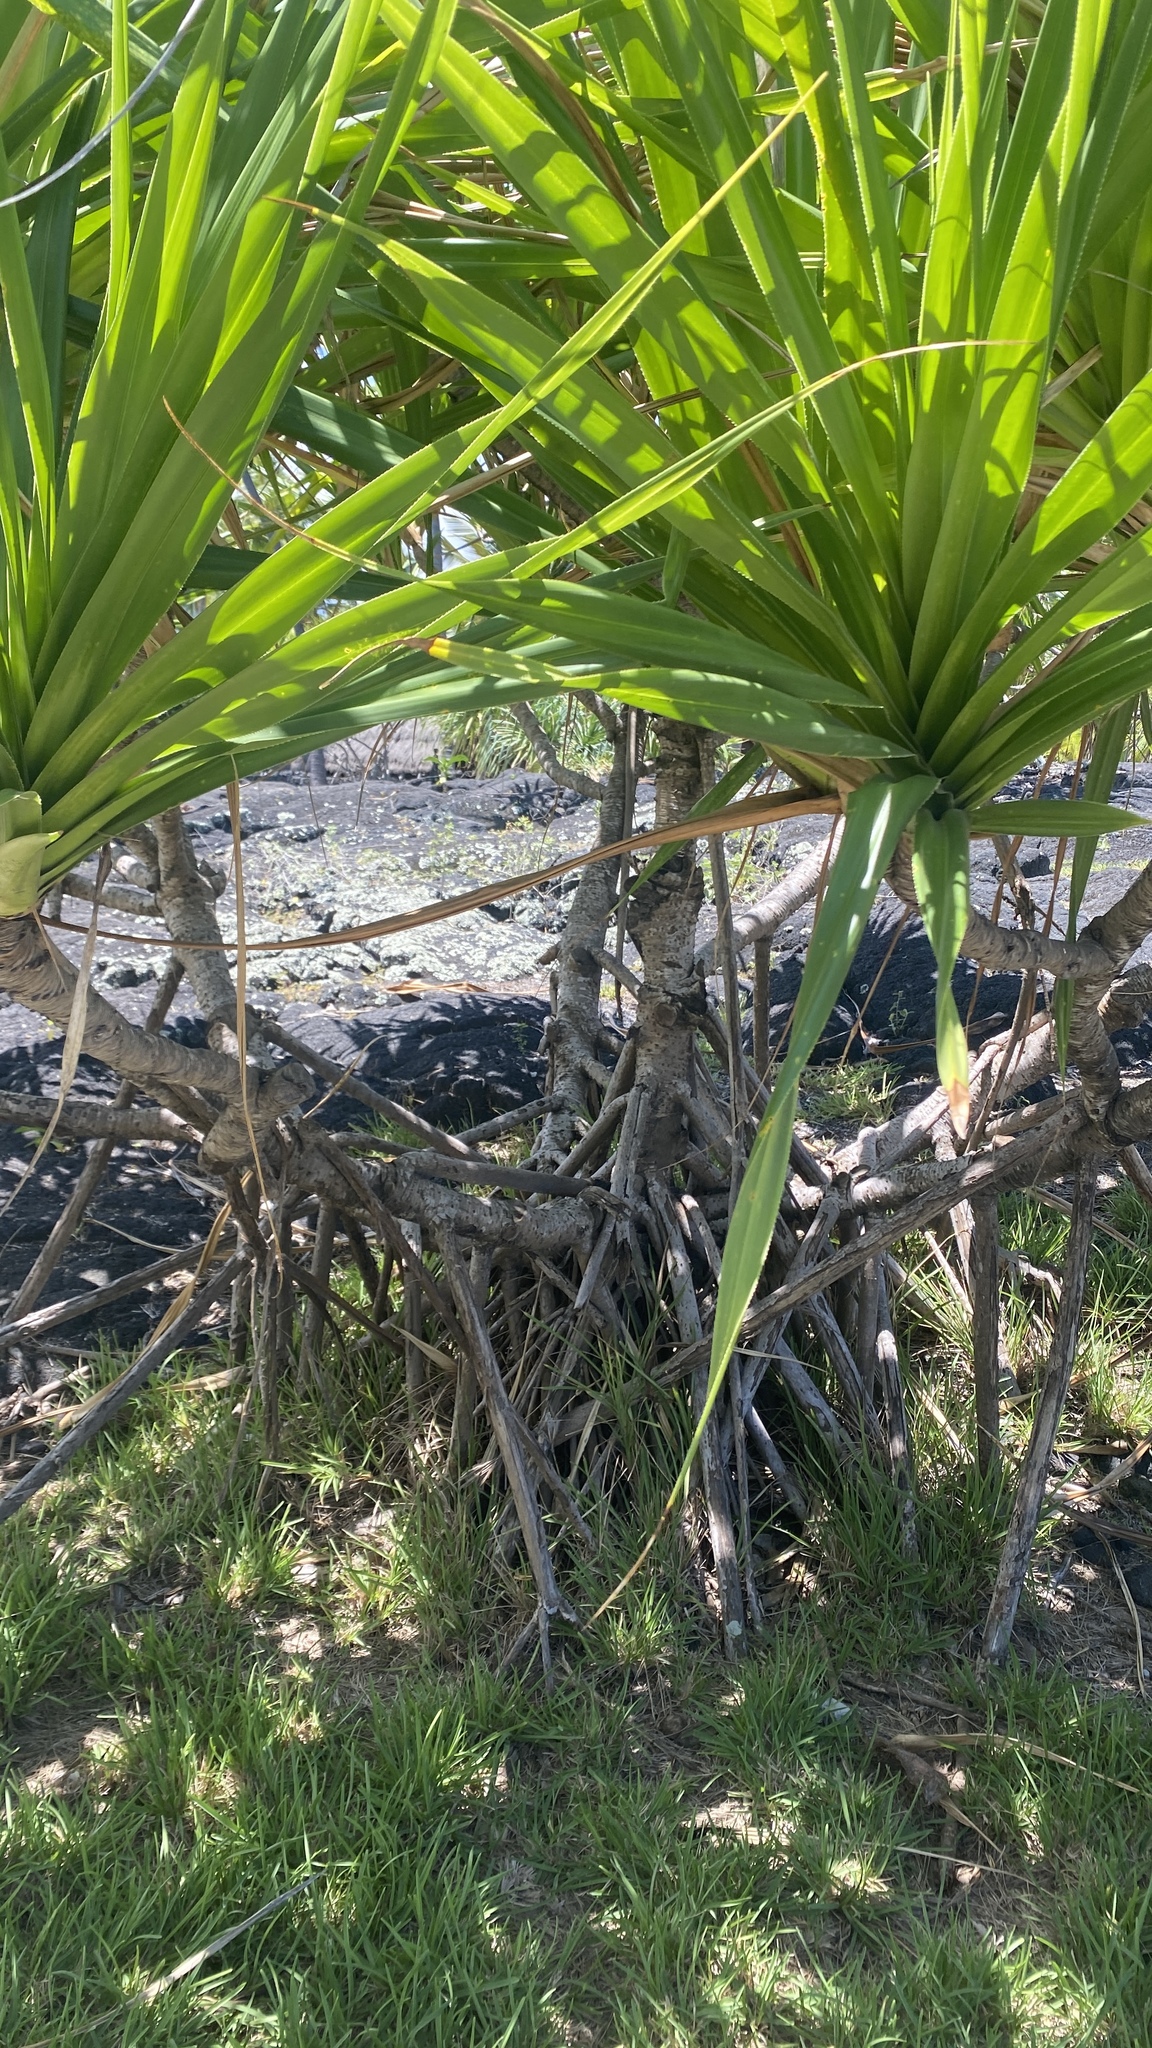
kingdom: Plantae
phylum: Tracheophyta
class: Liliopsida
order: Pandanales
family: Pandanaceae
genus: Pandanus
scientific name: Pandanus tectorius
